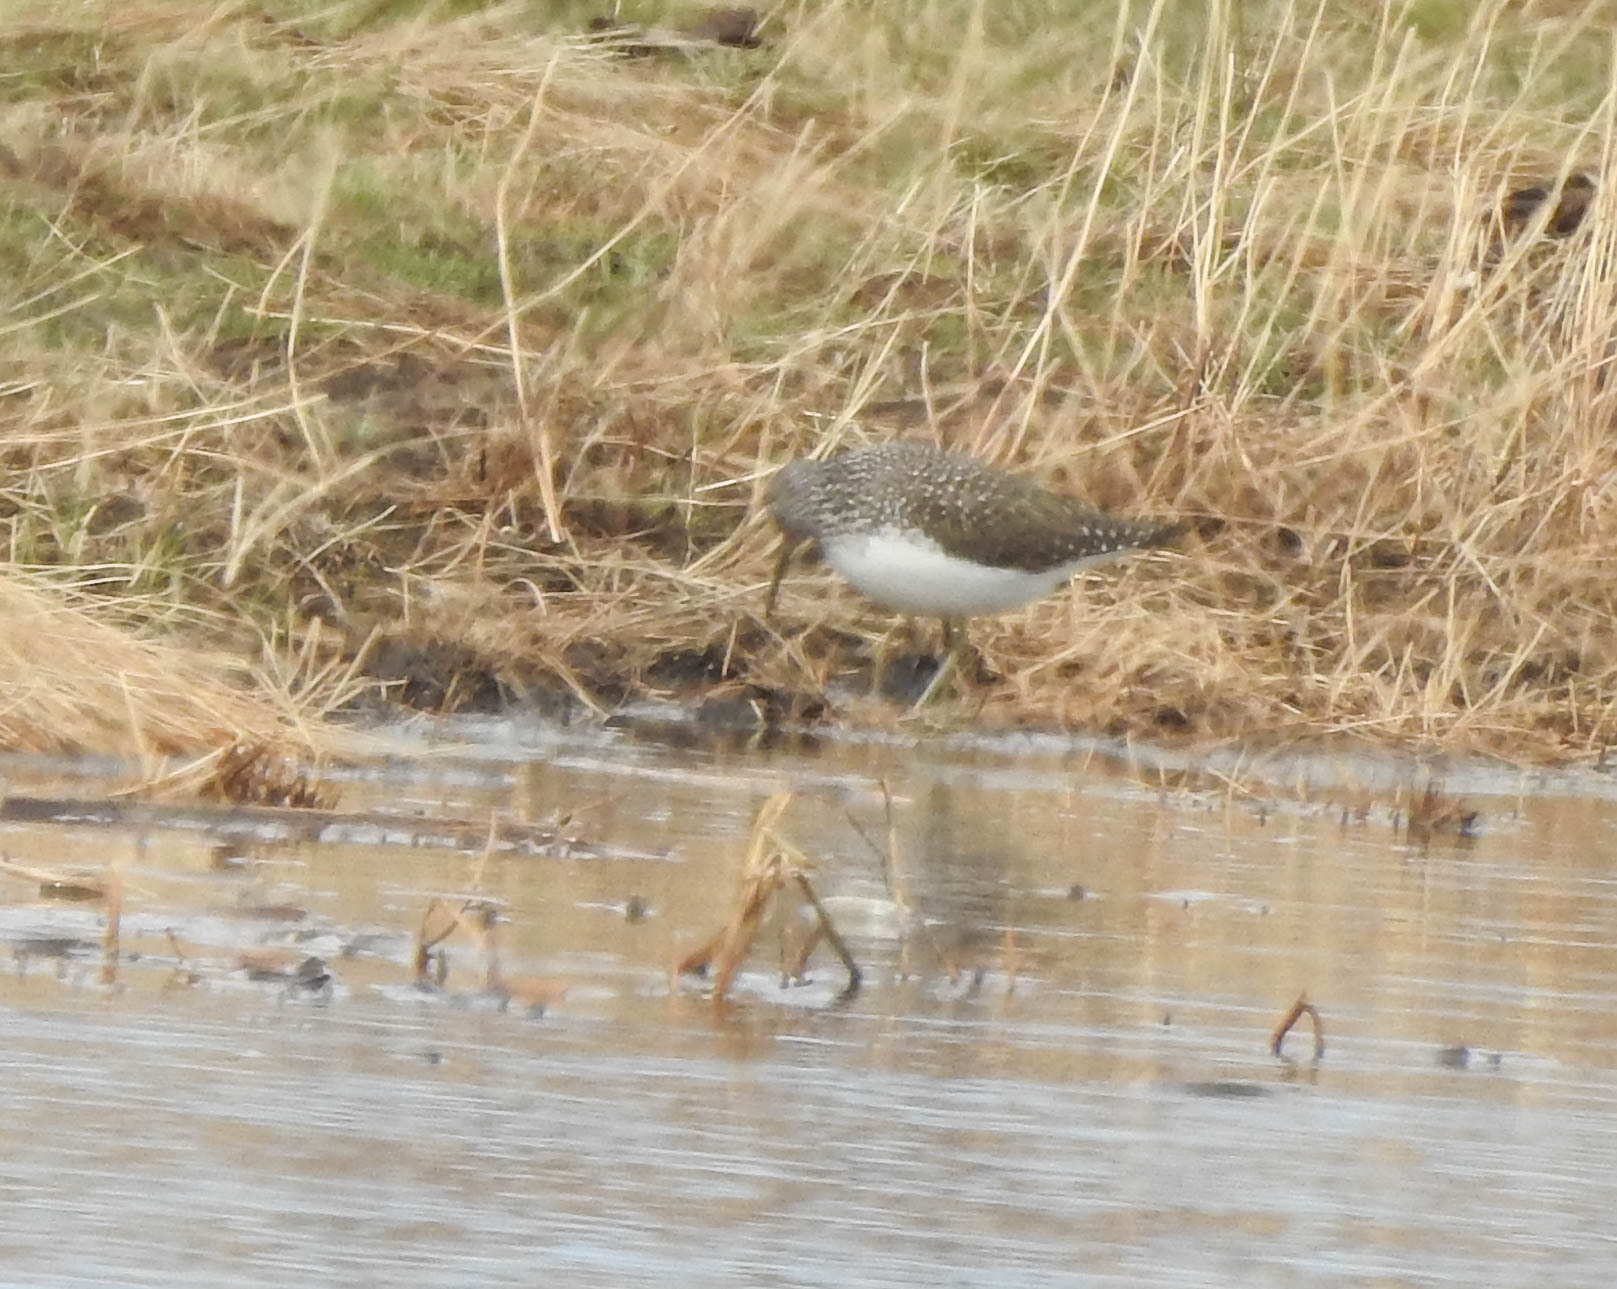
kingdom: Animalia
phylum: Chordata
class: Aves
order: Charadriiformes
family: Scolopacidae
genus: Tringa
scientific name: Tringa ochropus
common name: Green sandpiper
